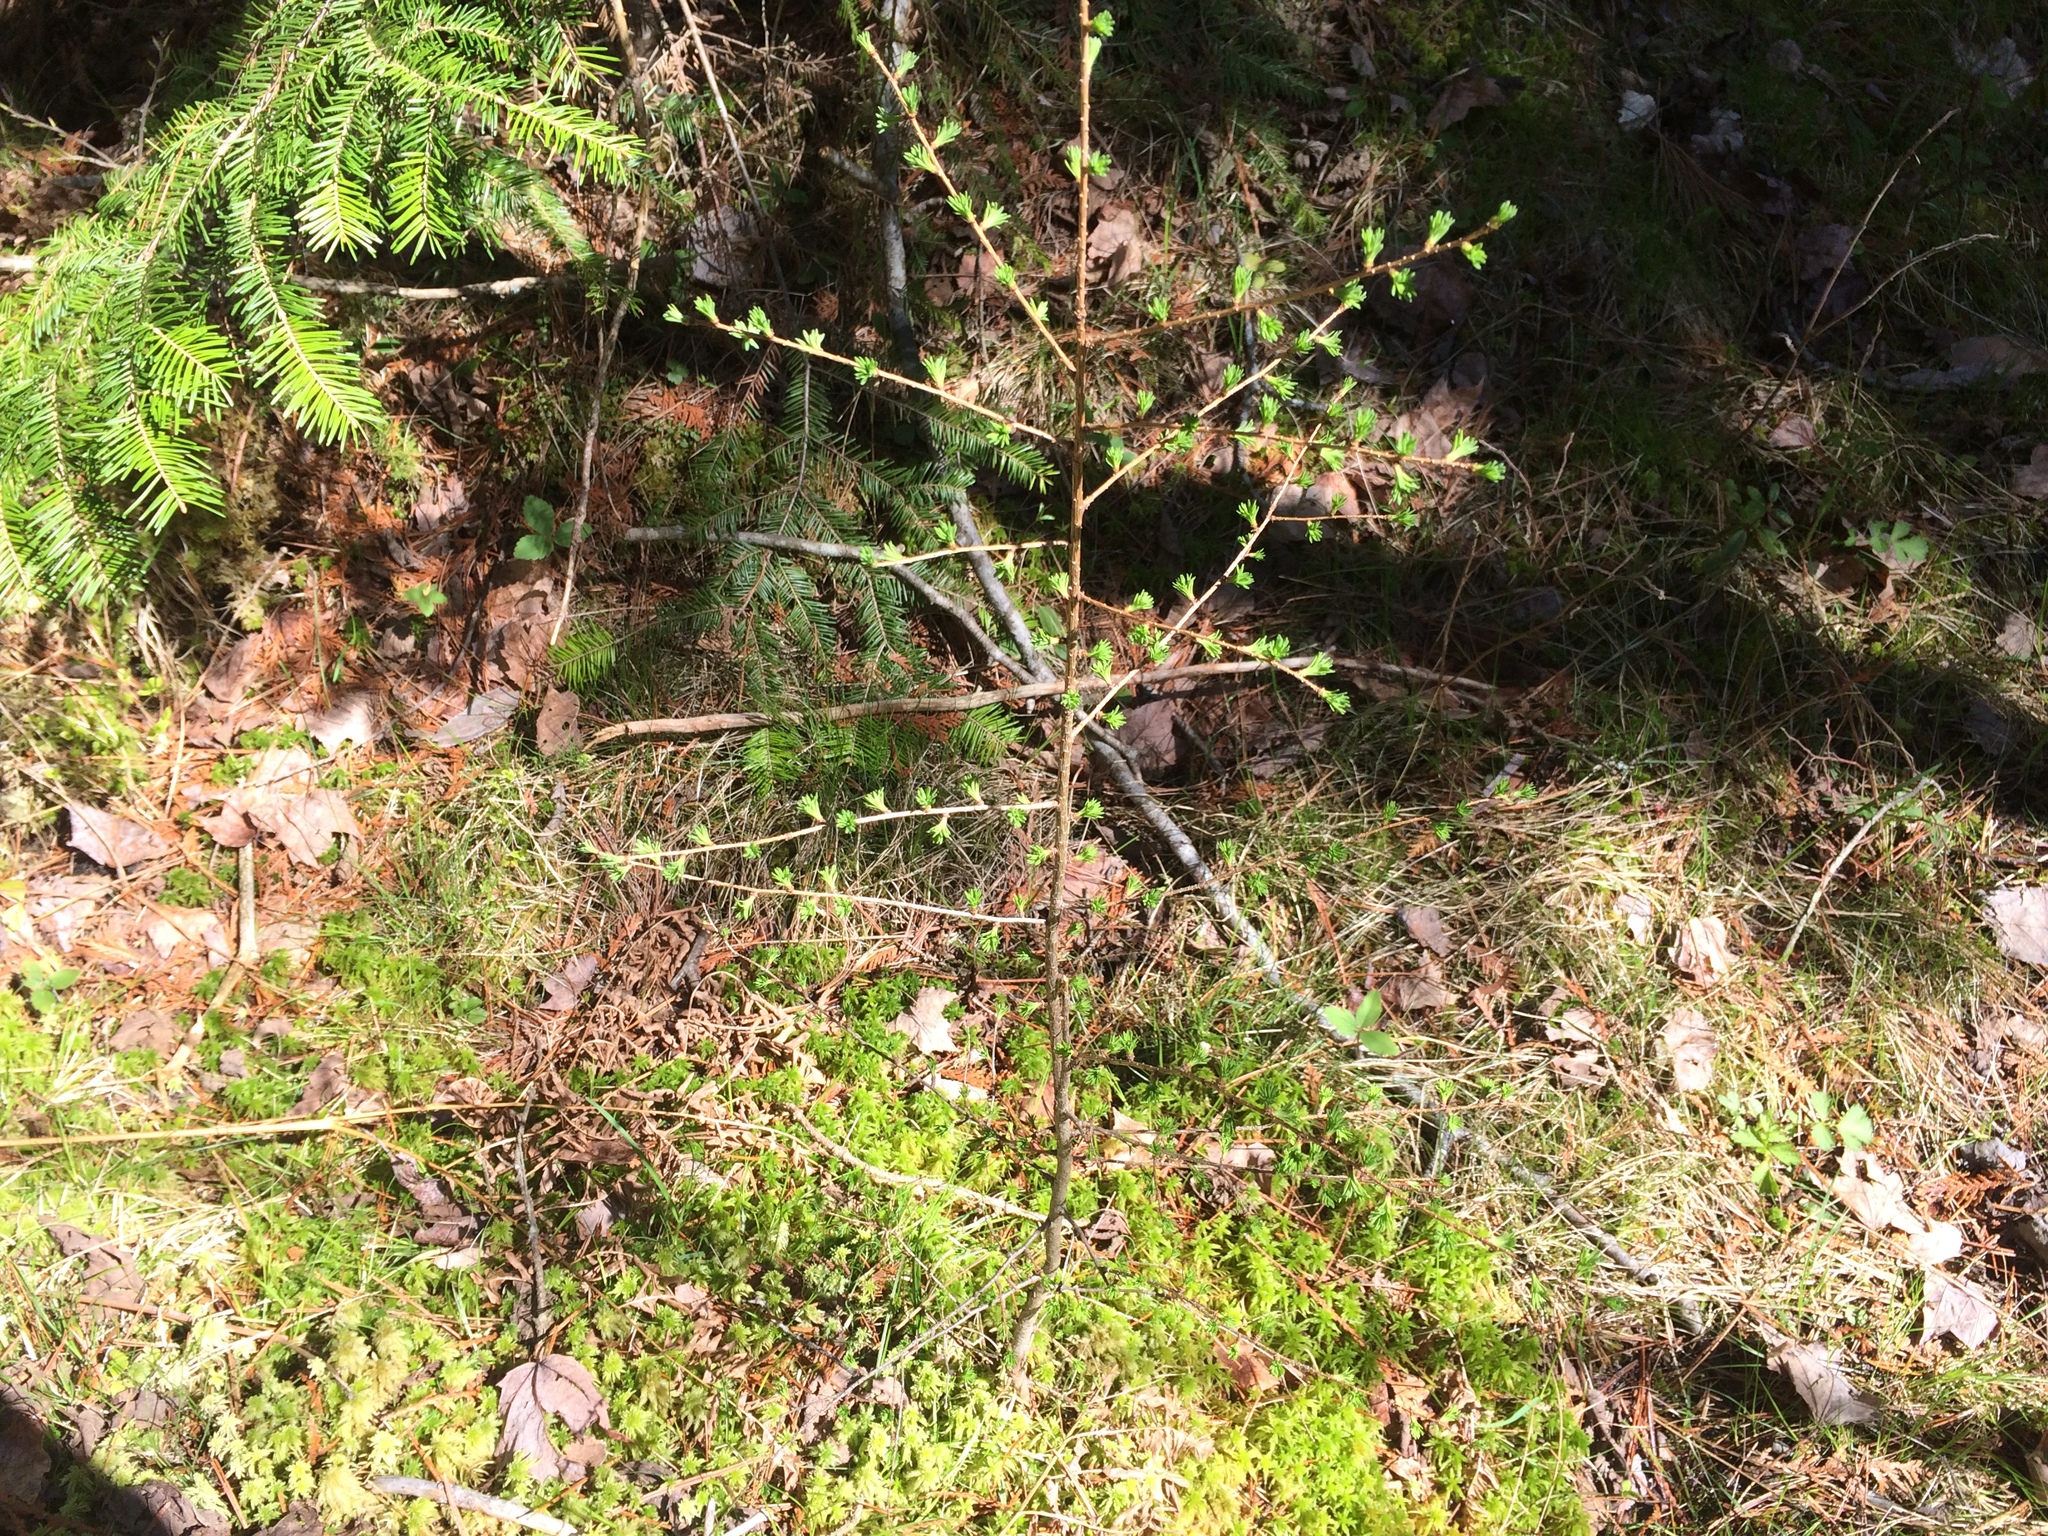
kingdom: Plantae
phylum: Tracheophyta
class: Pinopsida
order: Pinales
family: Pinaceae
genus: Larix
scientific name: Larix laricina
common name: American larch
